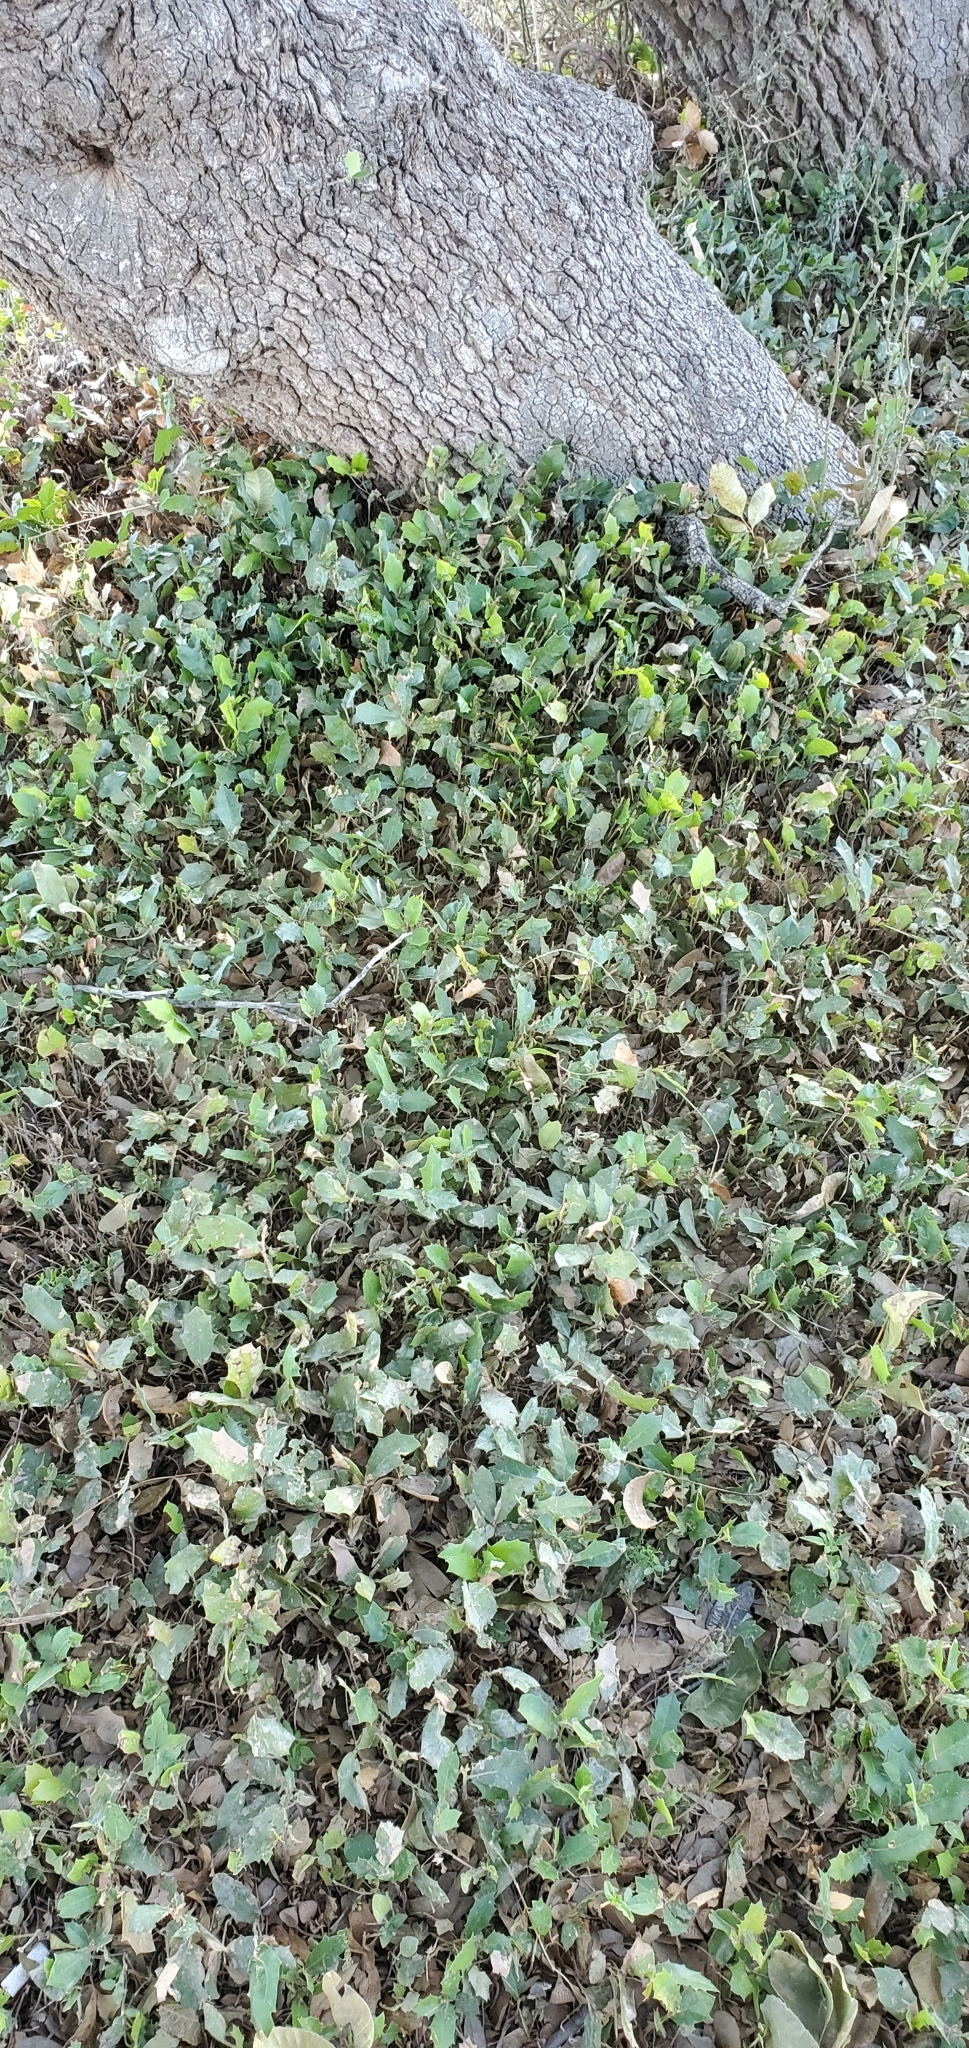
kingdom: Plantae
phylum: Tracheophyta
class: Magnoliopsida
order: Fagales
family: Fagaceae
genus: Quercus
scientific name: Quercus fusiformis
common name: Texas live oak
